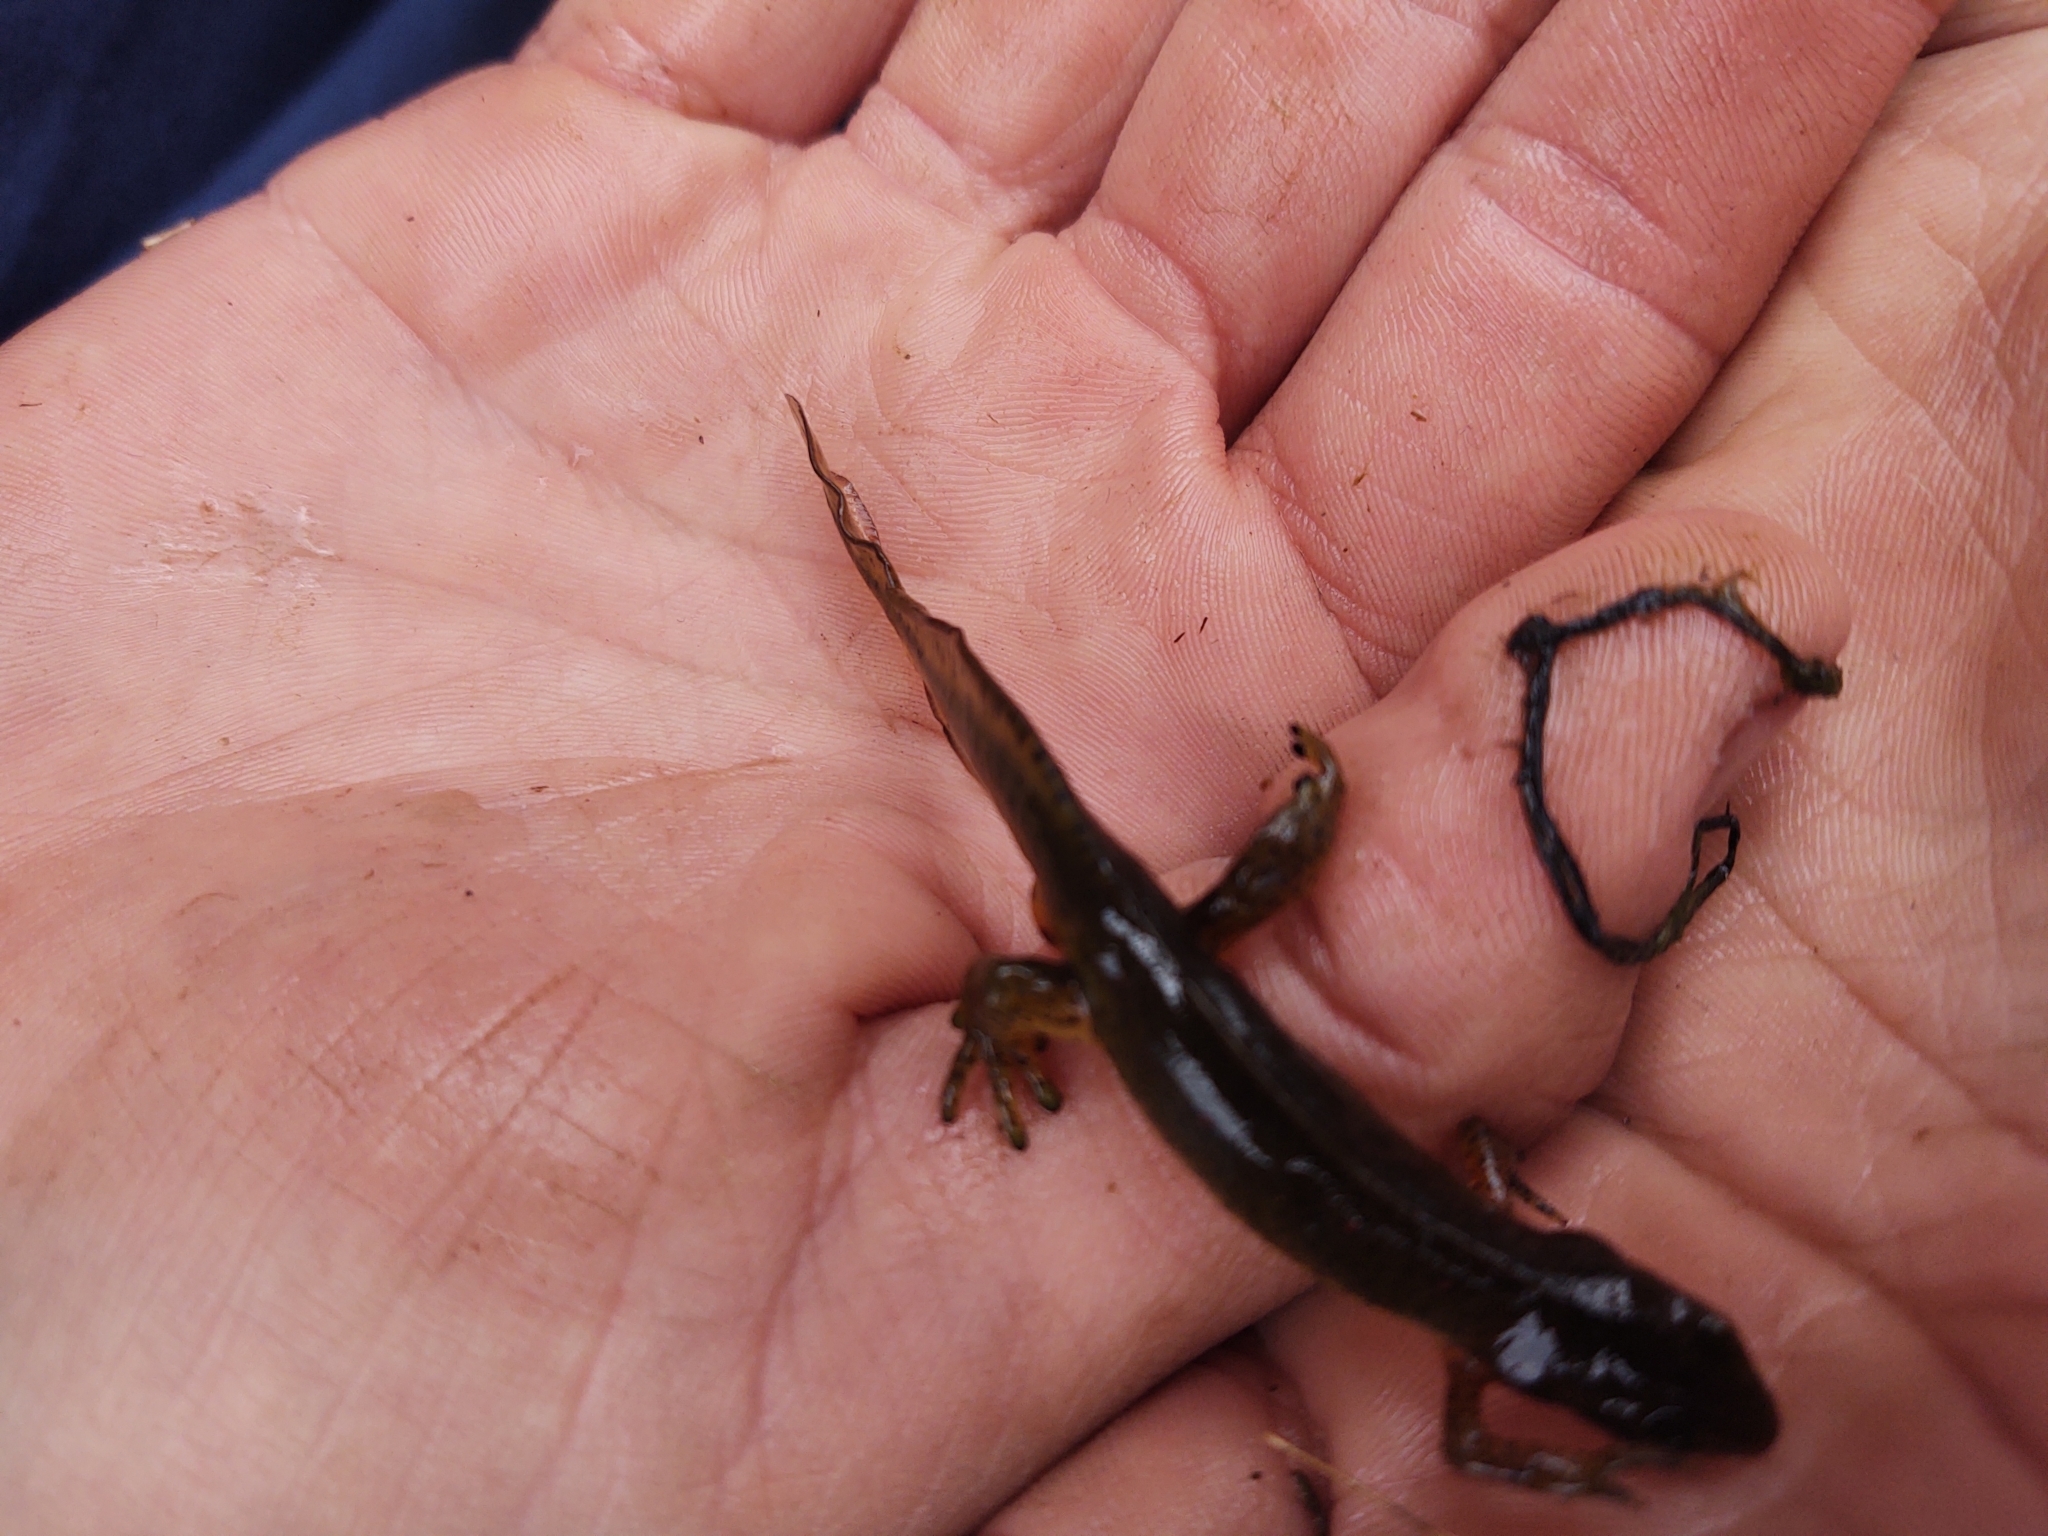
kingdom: Animalia
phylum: Chordata
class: Amphibia
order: Caudata
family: Salamandridae
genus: Notophthalmus
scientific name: Notophthalmus viridescens
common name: Eastern newt
